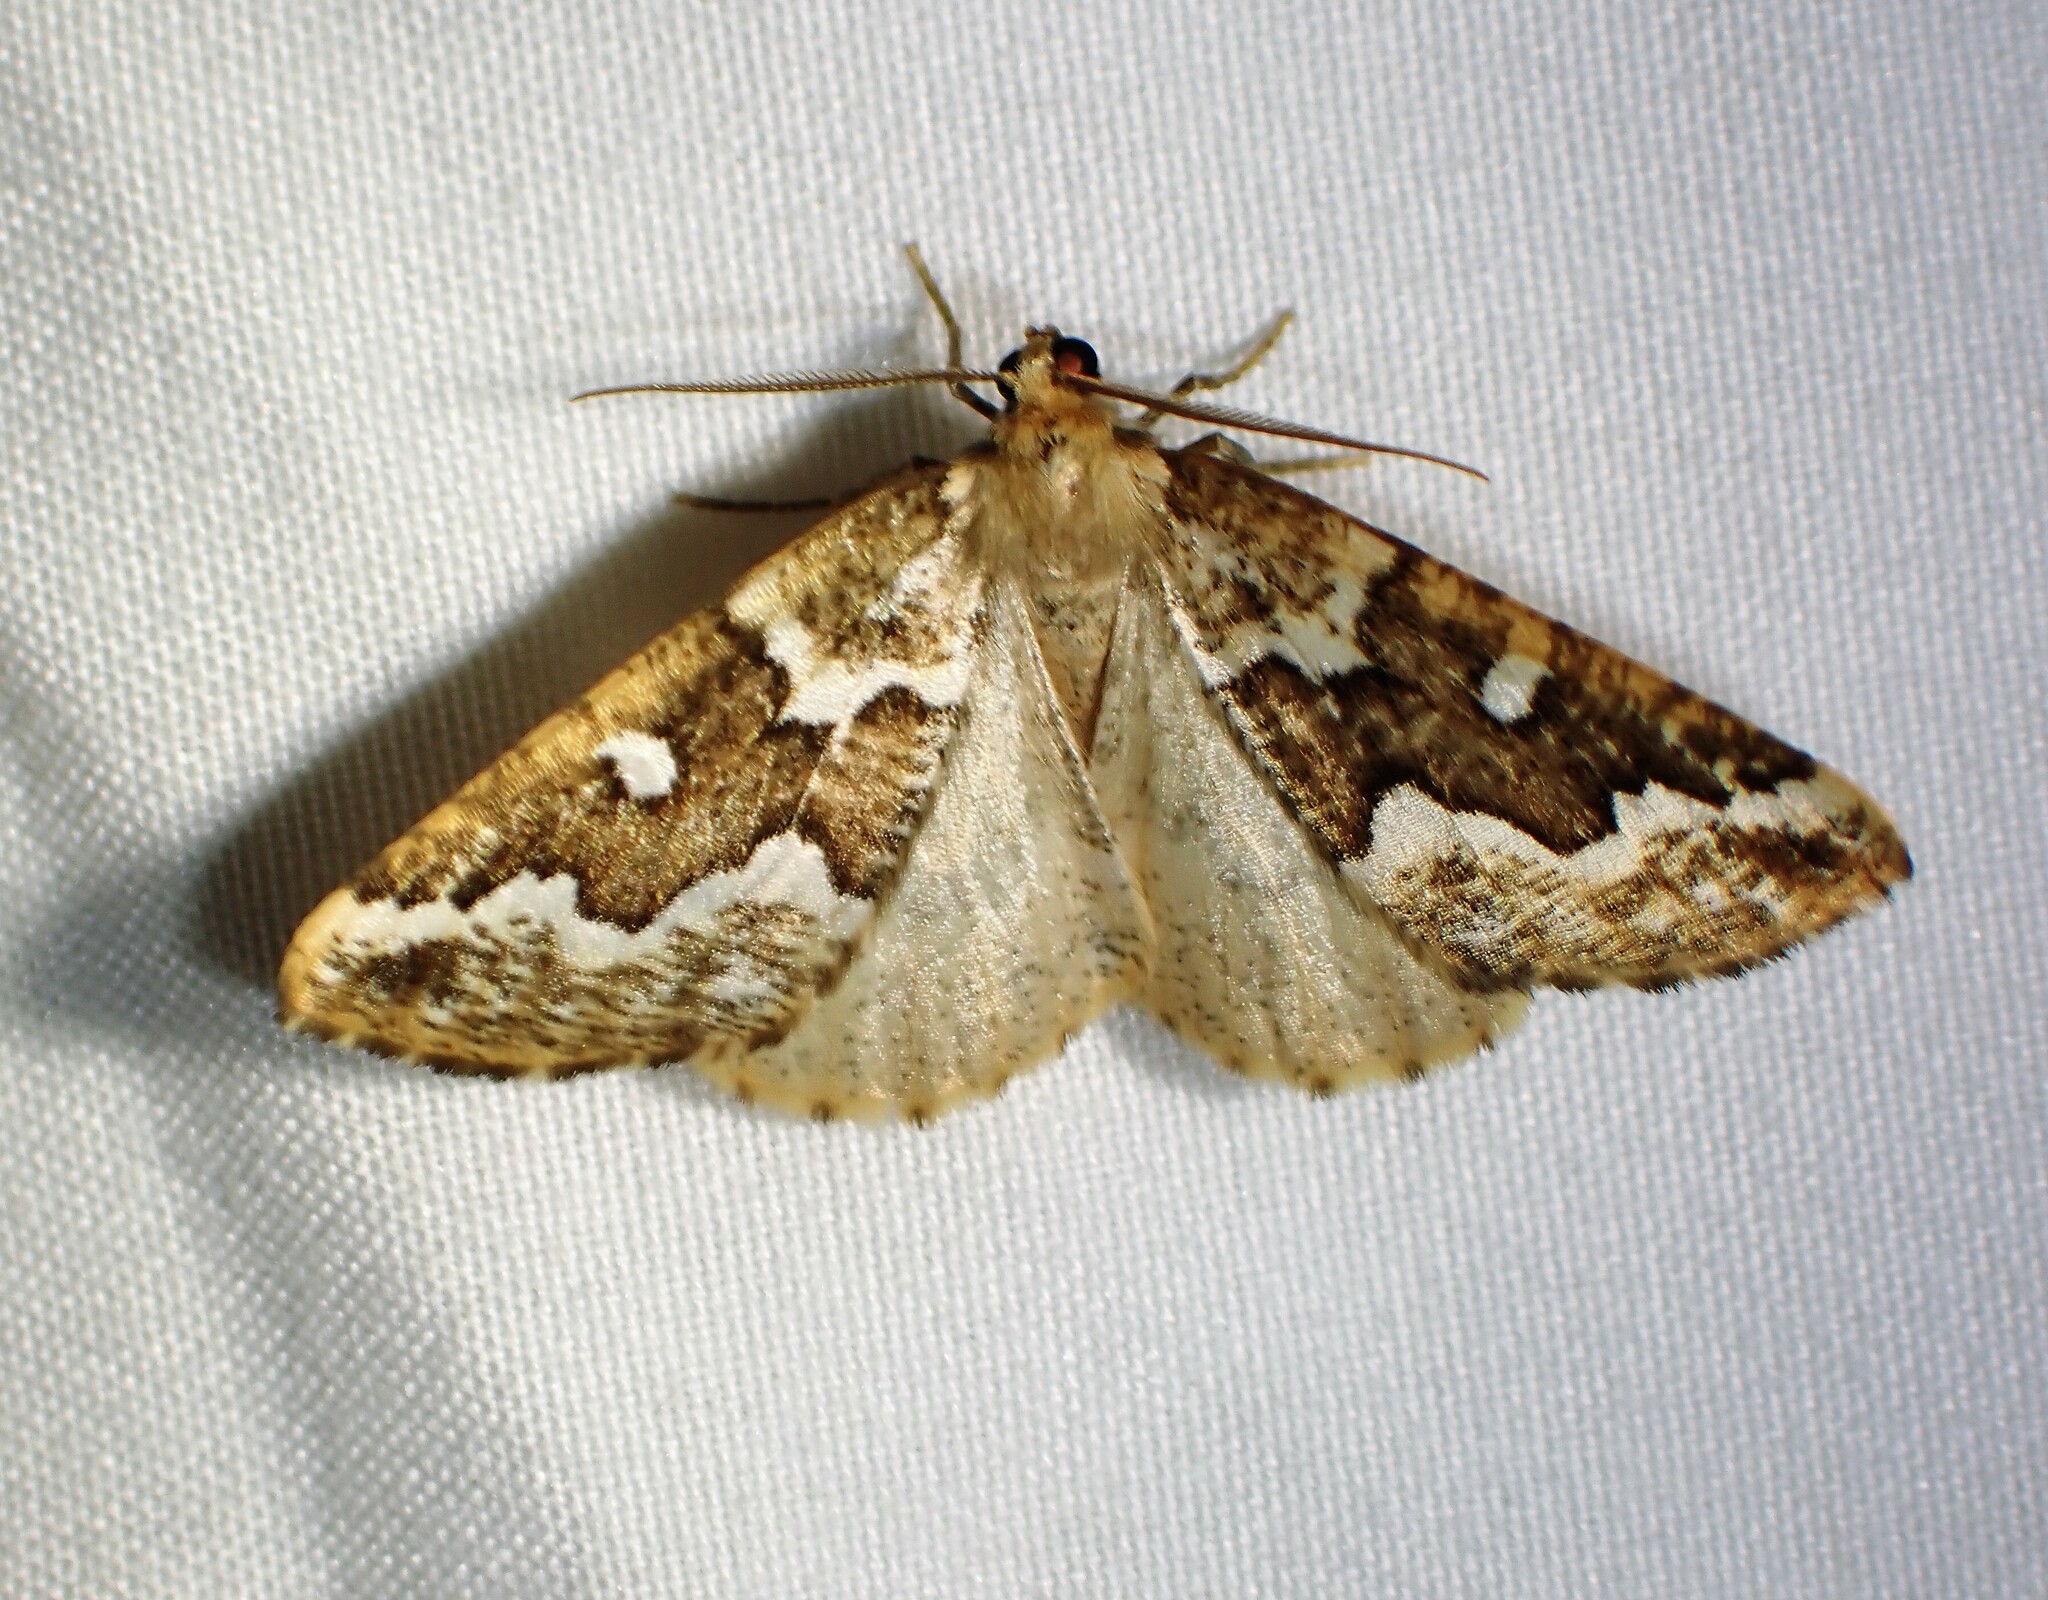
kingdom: Animalia
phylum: Arthropoda
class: Insecta
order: Lepidoptera
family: Geometridae
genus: Caripeta
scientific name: Caripeta divisata
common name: Gray spruce looper
